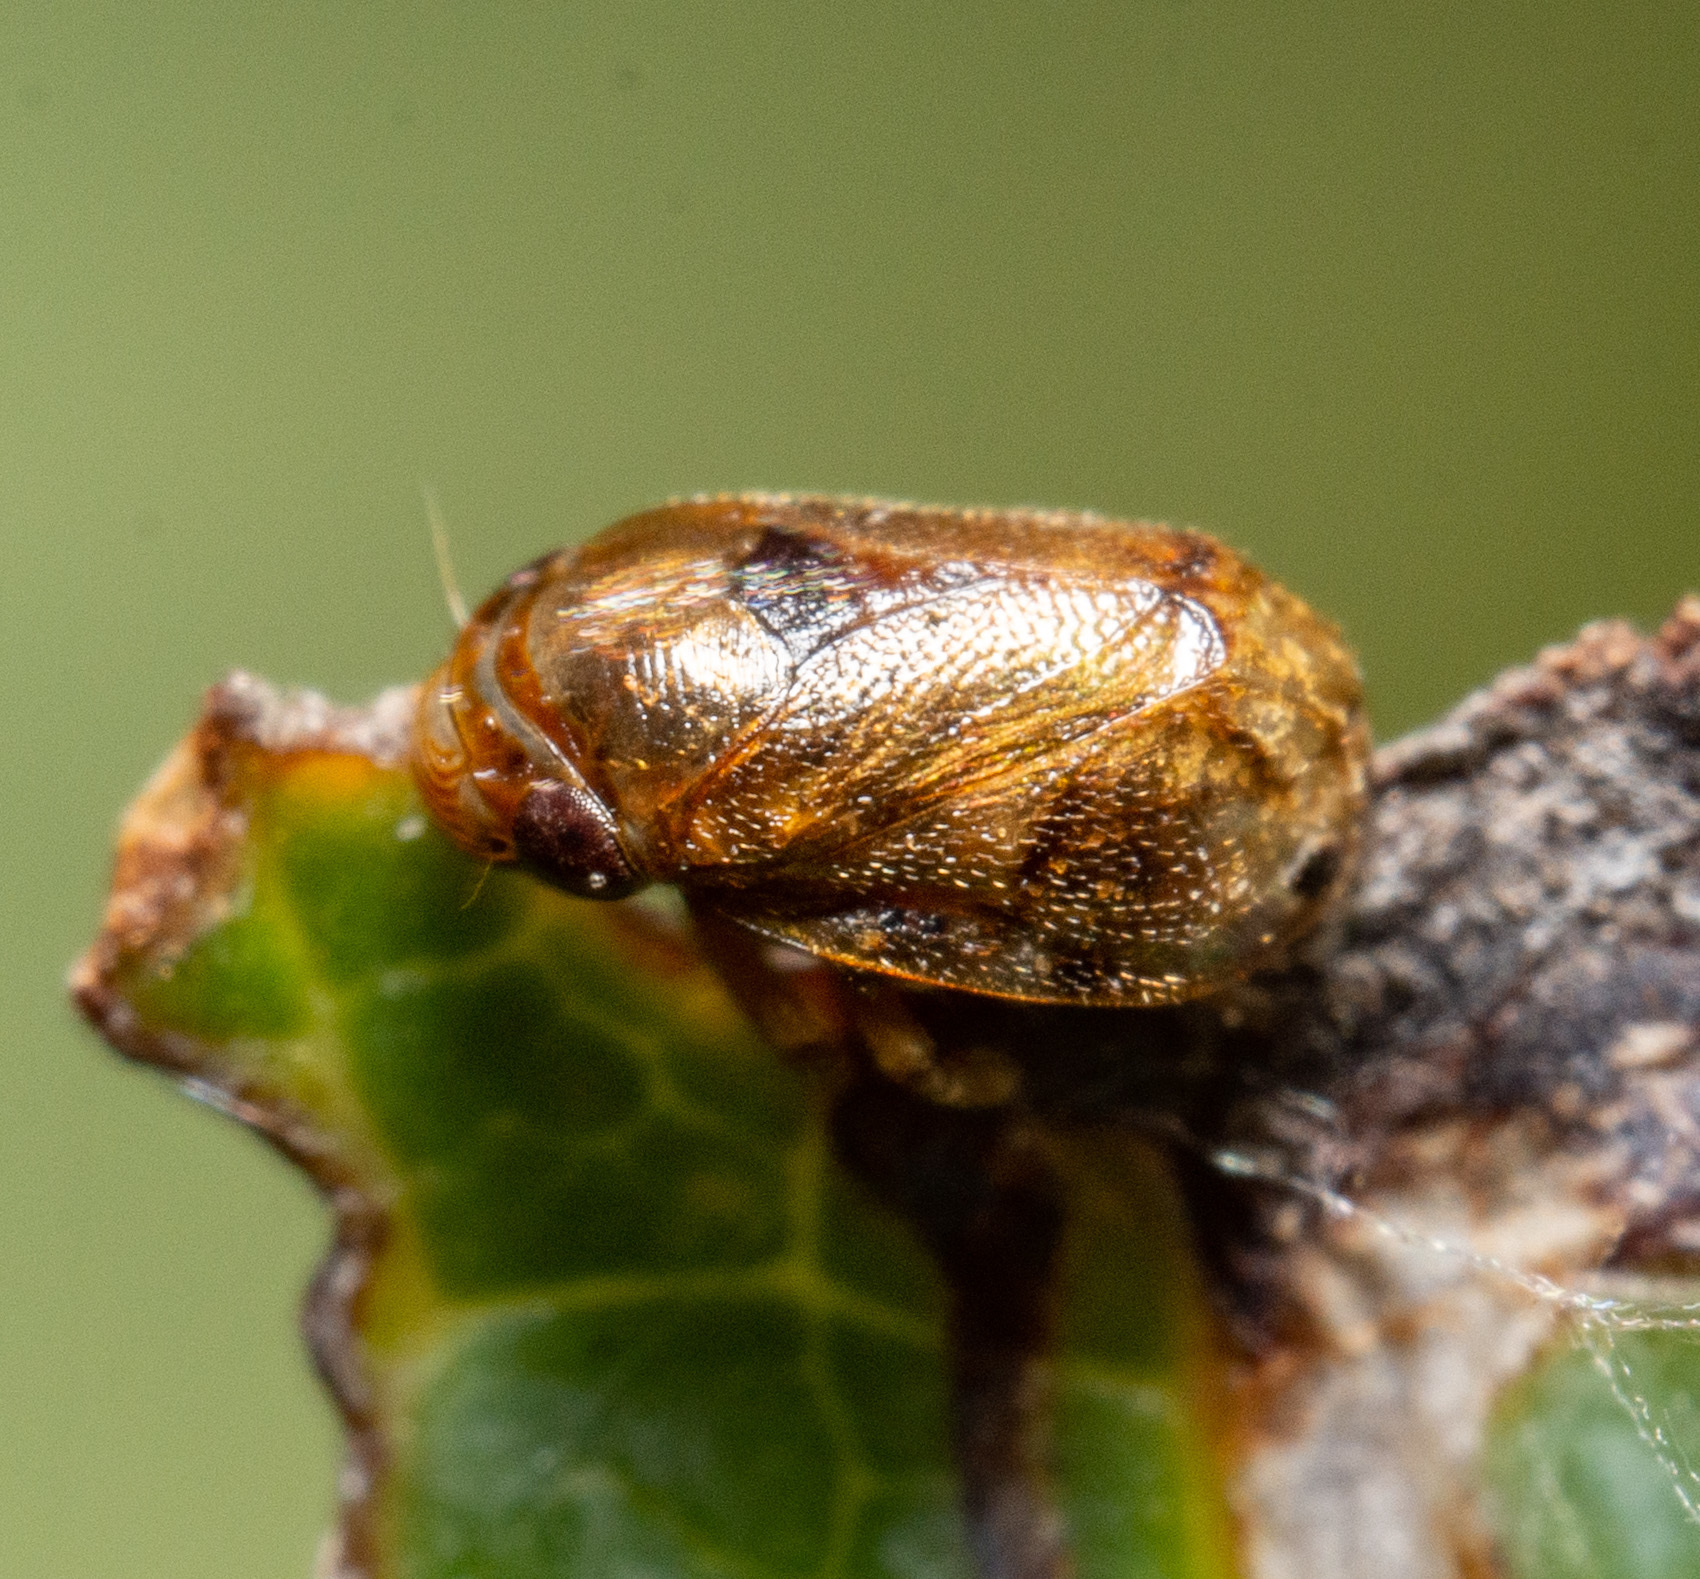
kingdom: Animalia
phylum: Arthropoda
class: Insecta
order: Hemiptera
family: Clastopteridae
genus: Clastoptera
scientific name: Clastoptera xanthocephala
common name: Sunflower spittlebug
